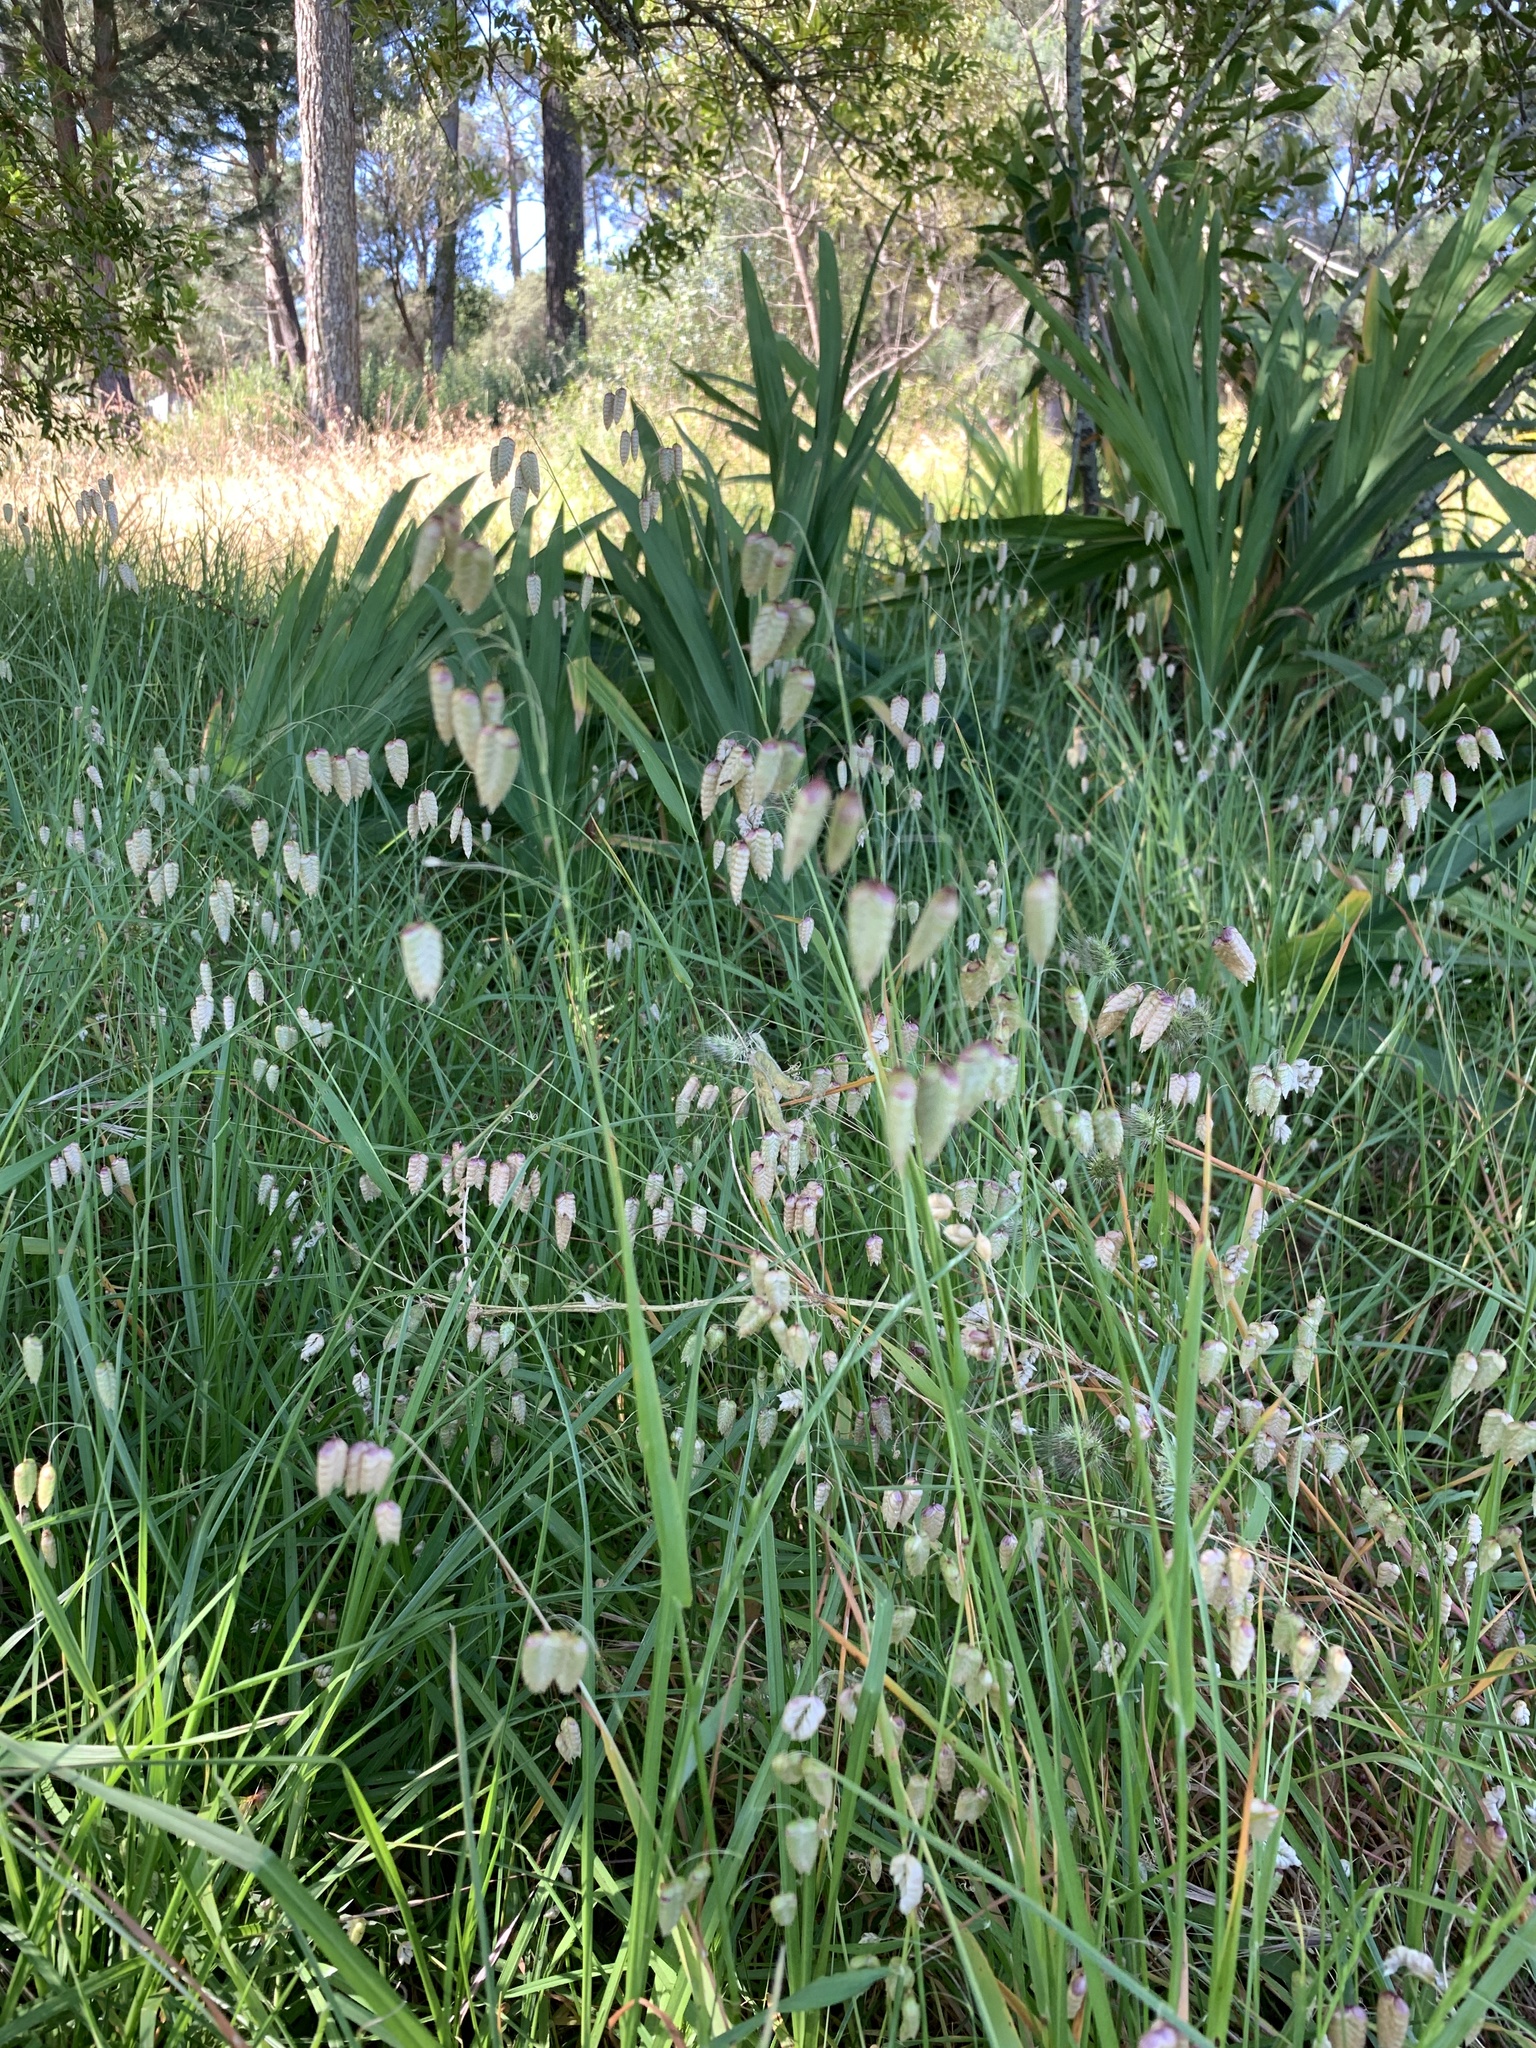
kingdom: Plantae
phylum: Tracheophyta
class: Liliopsida
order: Poales
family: Poaceae
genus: Briza
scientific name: Briza maxima
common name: Big quakinggrass
